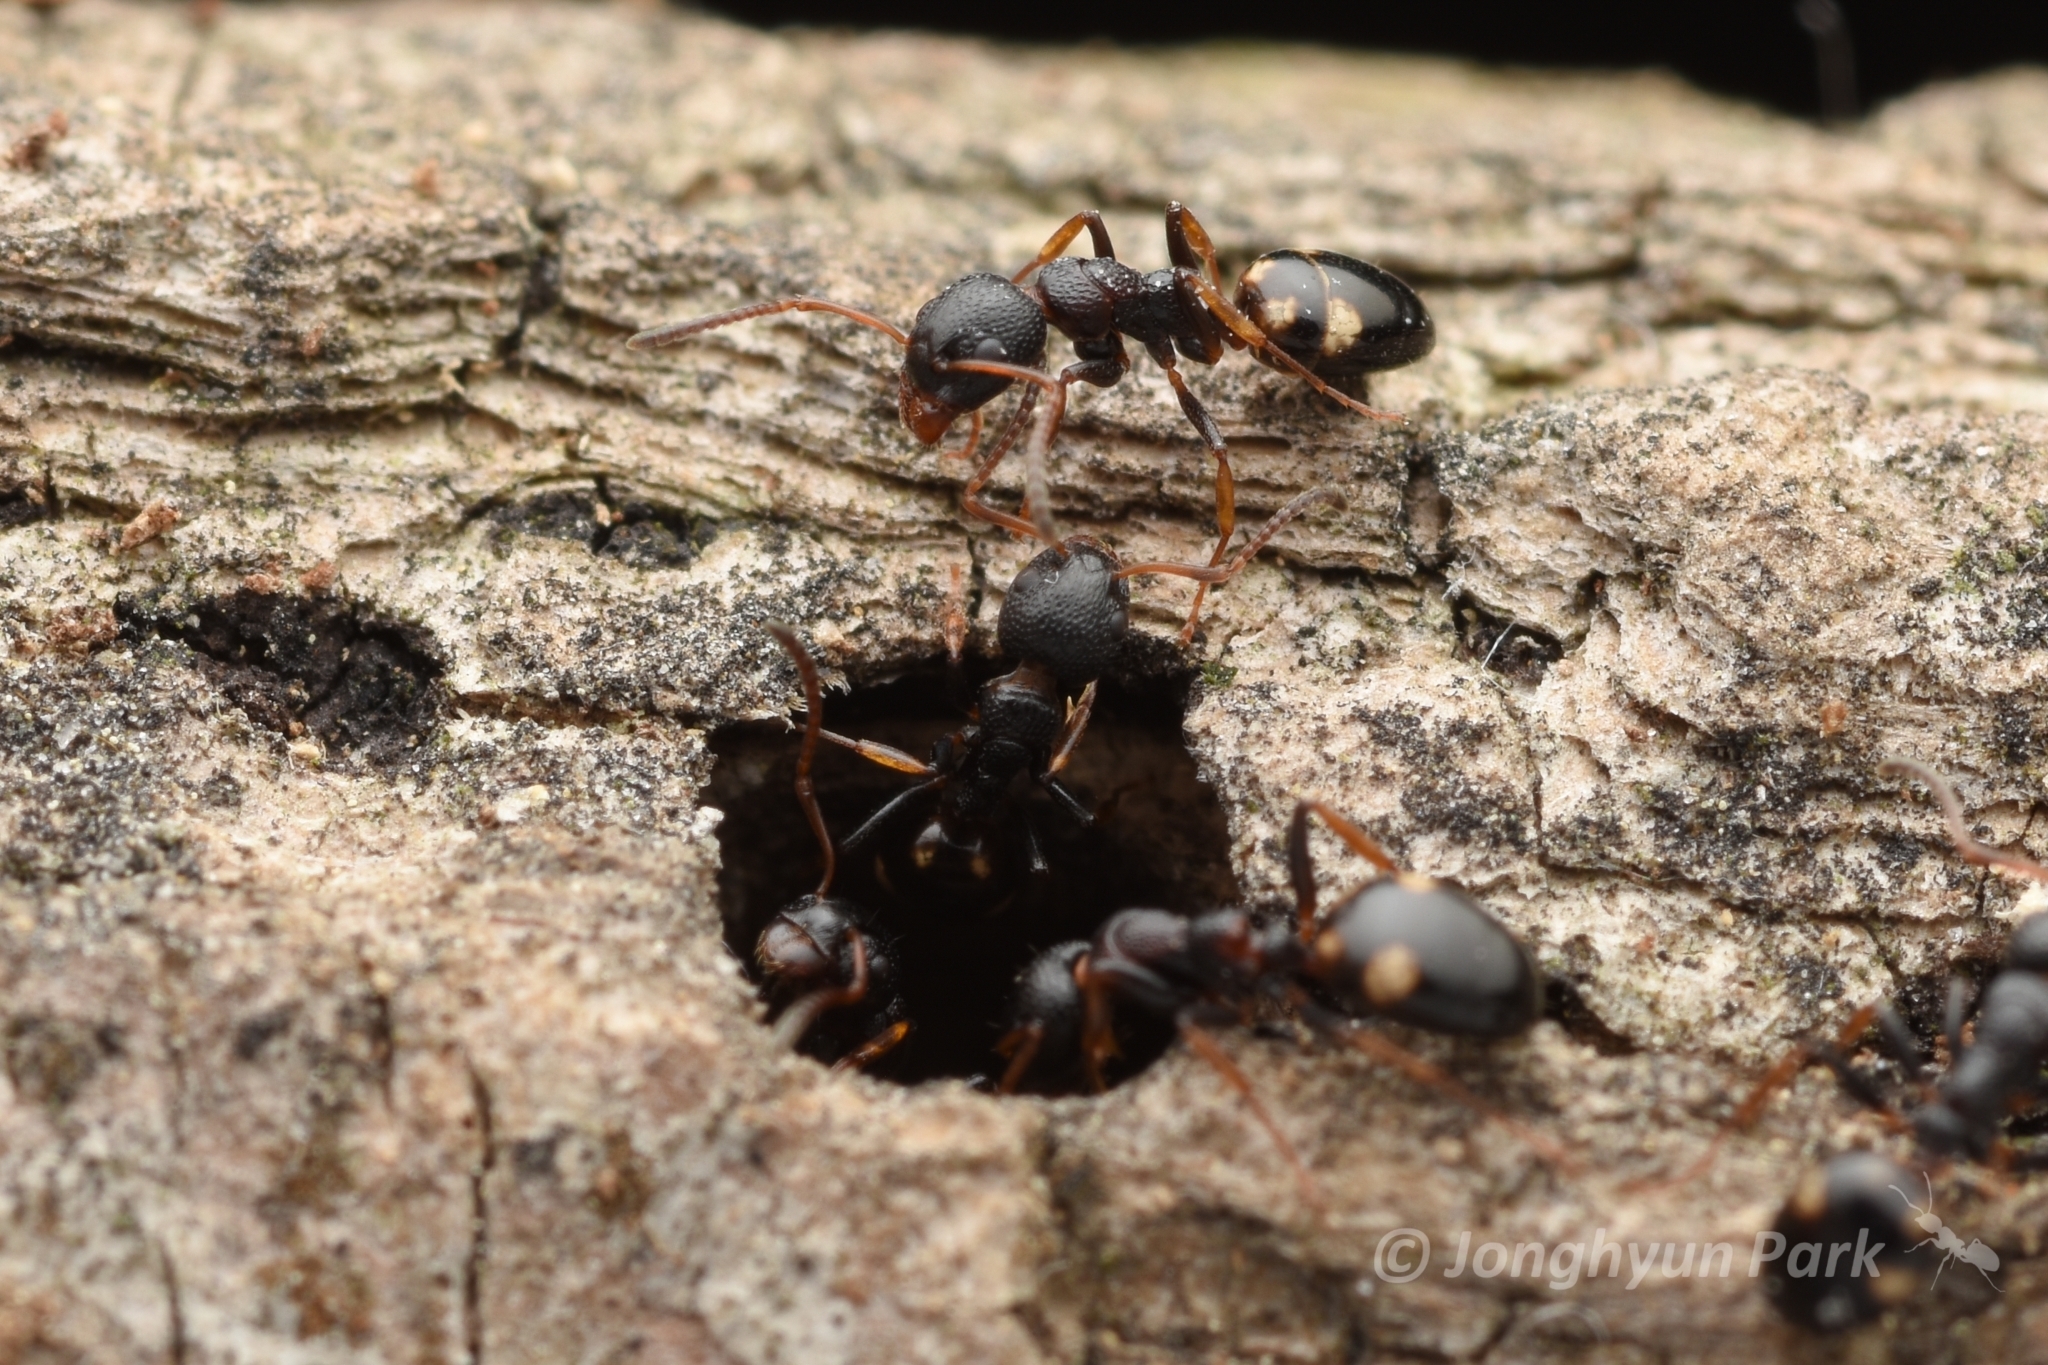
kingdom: Animalia
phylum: Arthropoda
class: Insecta
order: Hymenoptera
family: Formicidae
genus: Dolichoderus
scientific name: Dolichoderus sibiricus
